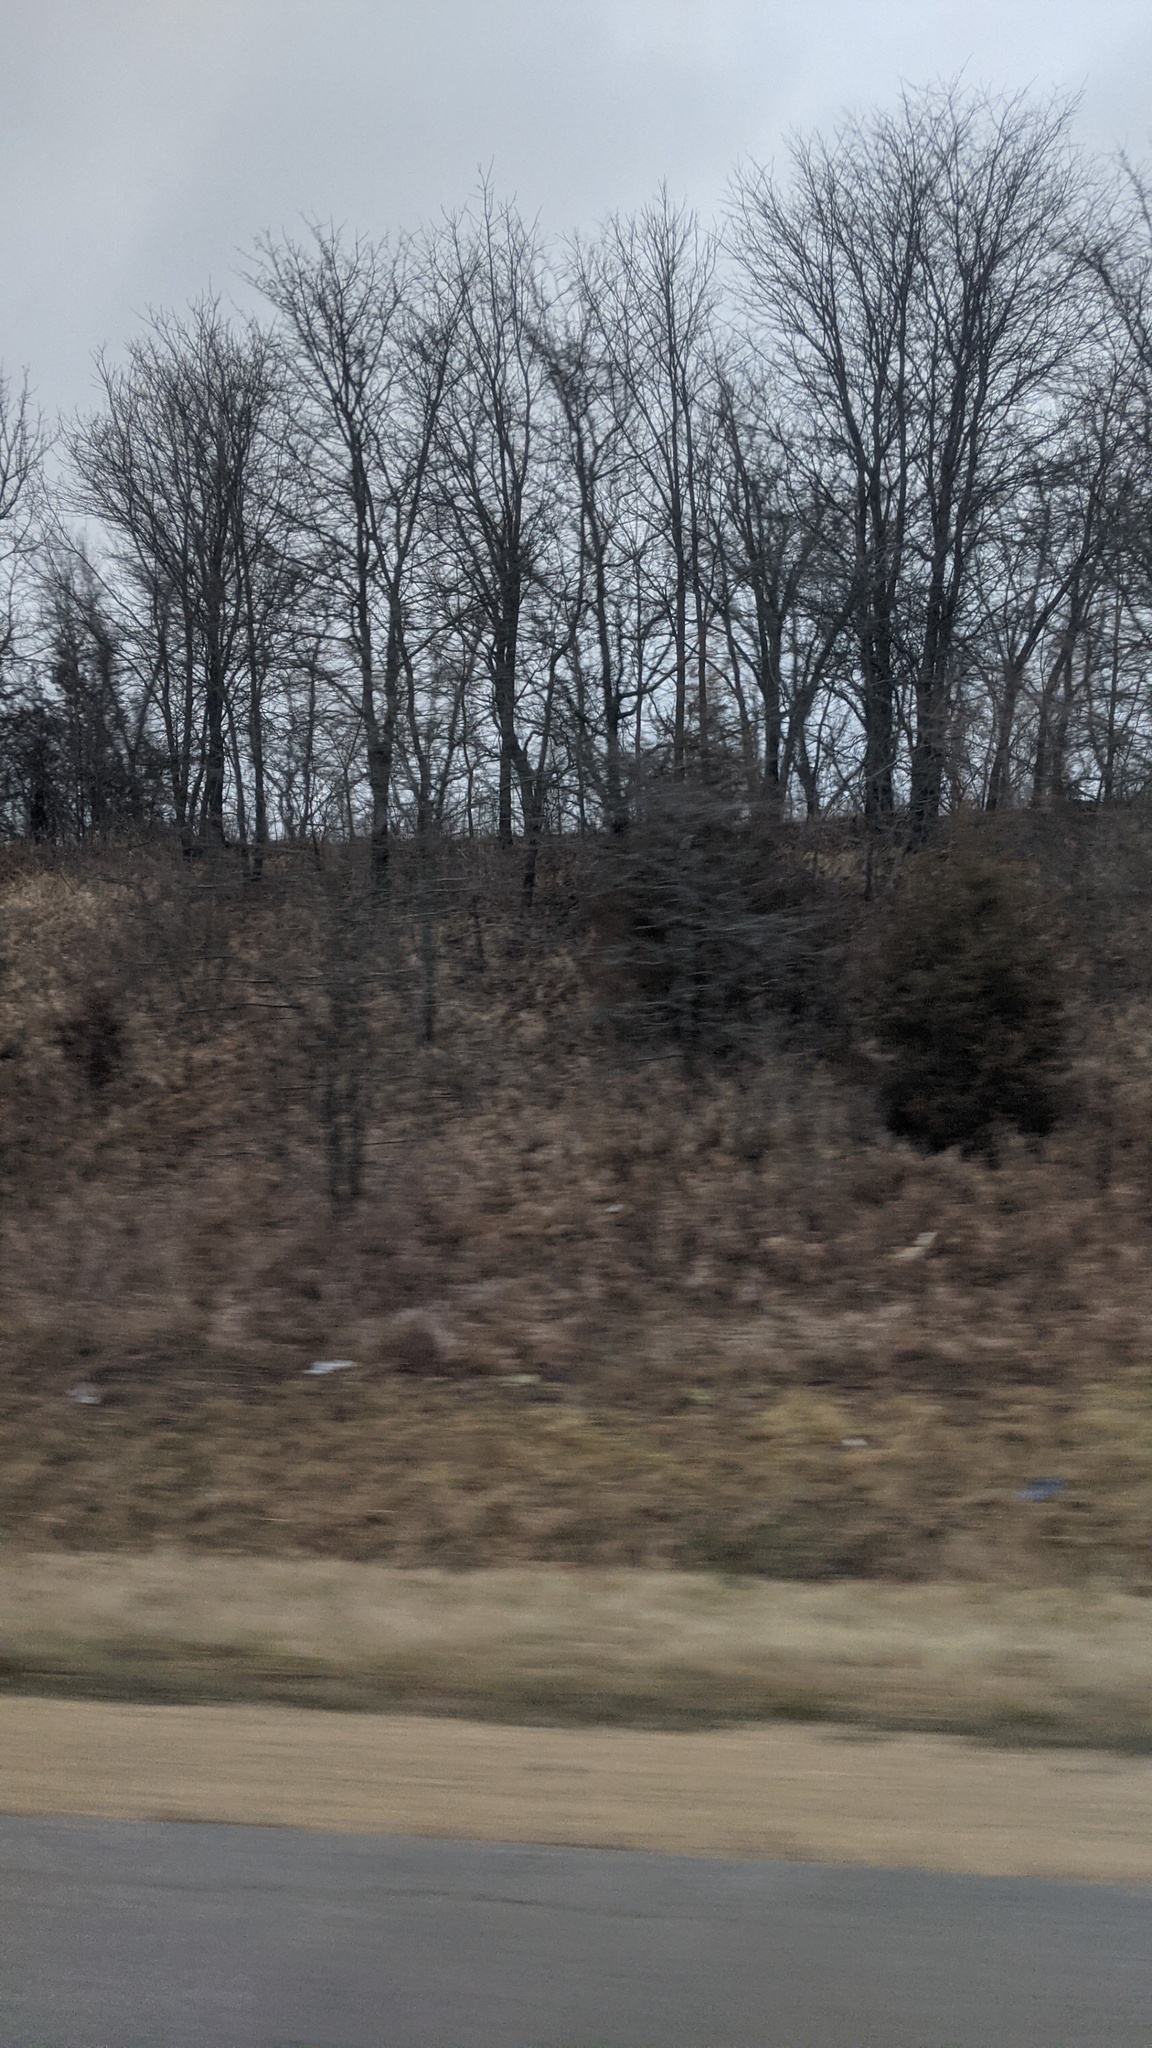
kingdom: Plantae
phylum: Tracheophyta
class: Pinopsida
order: Pinales
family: Cupressaceae
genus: Juniperus
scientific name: Juniperus virginiana
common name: Red juniper
